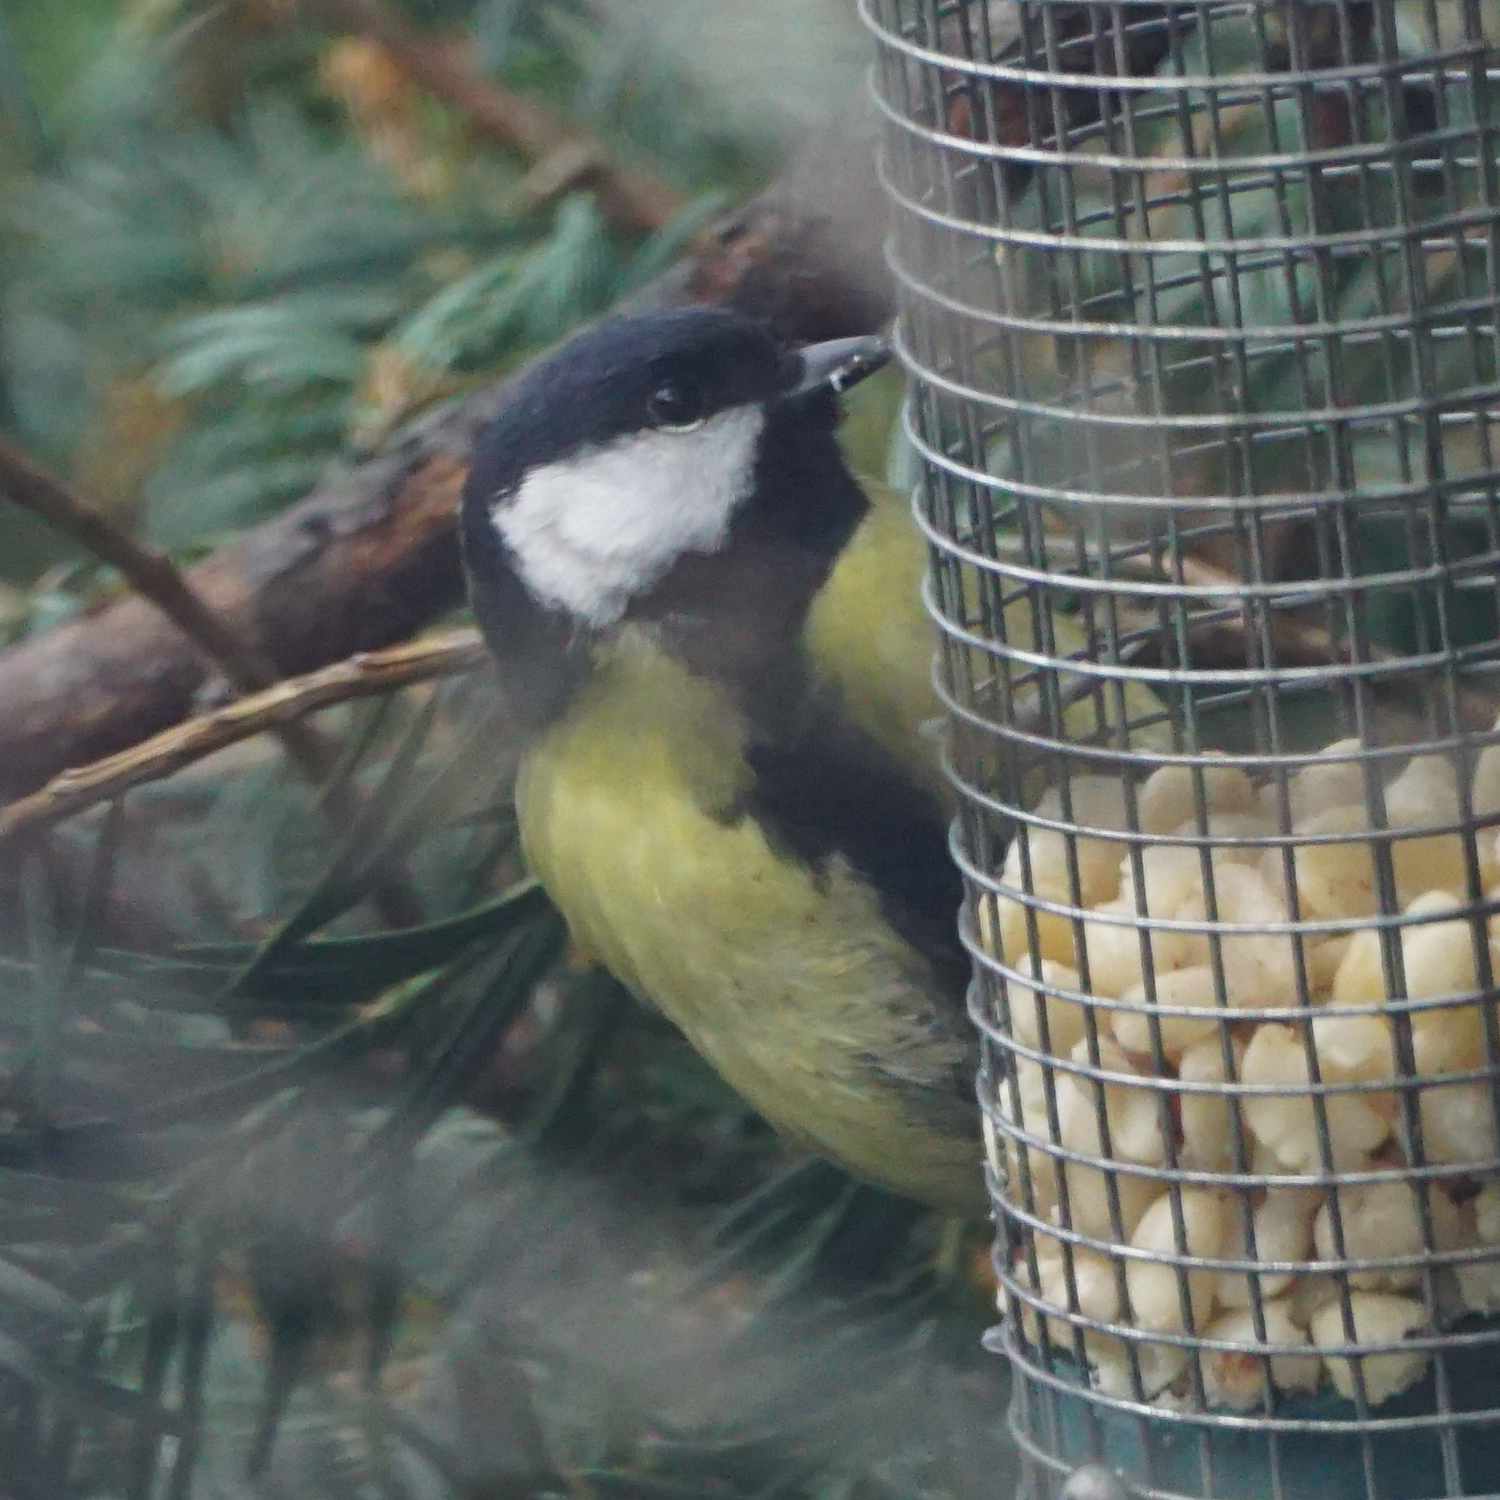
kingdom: Animalia
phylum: Chordata
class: Aves
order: Passeriformes
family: Paridae
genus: Parus
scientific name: Parus major
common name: Great tit
